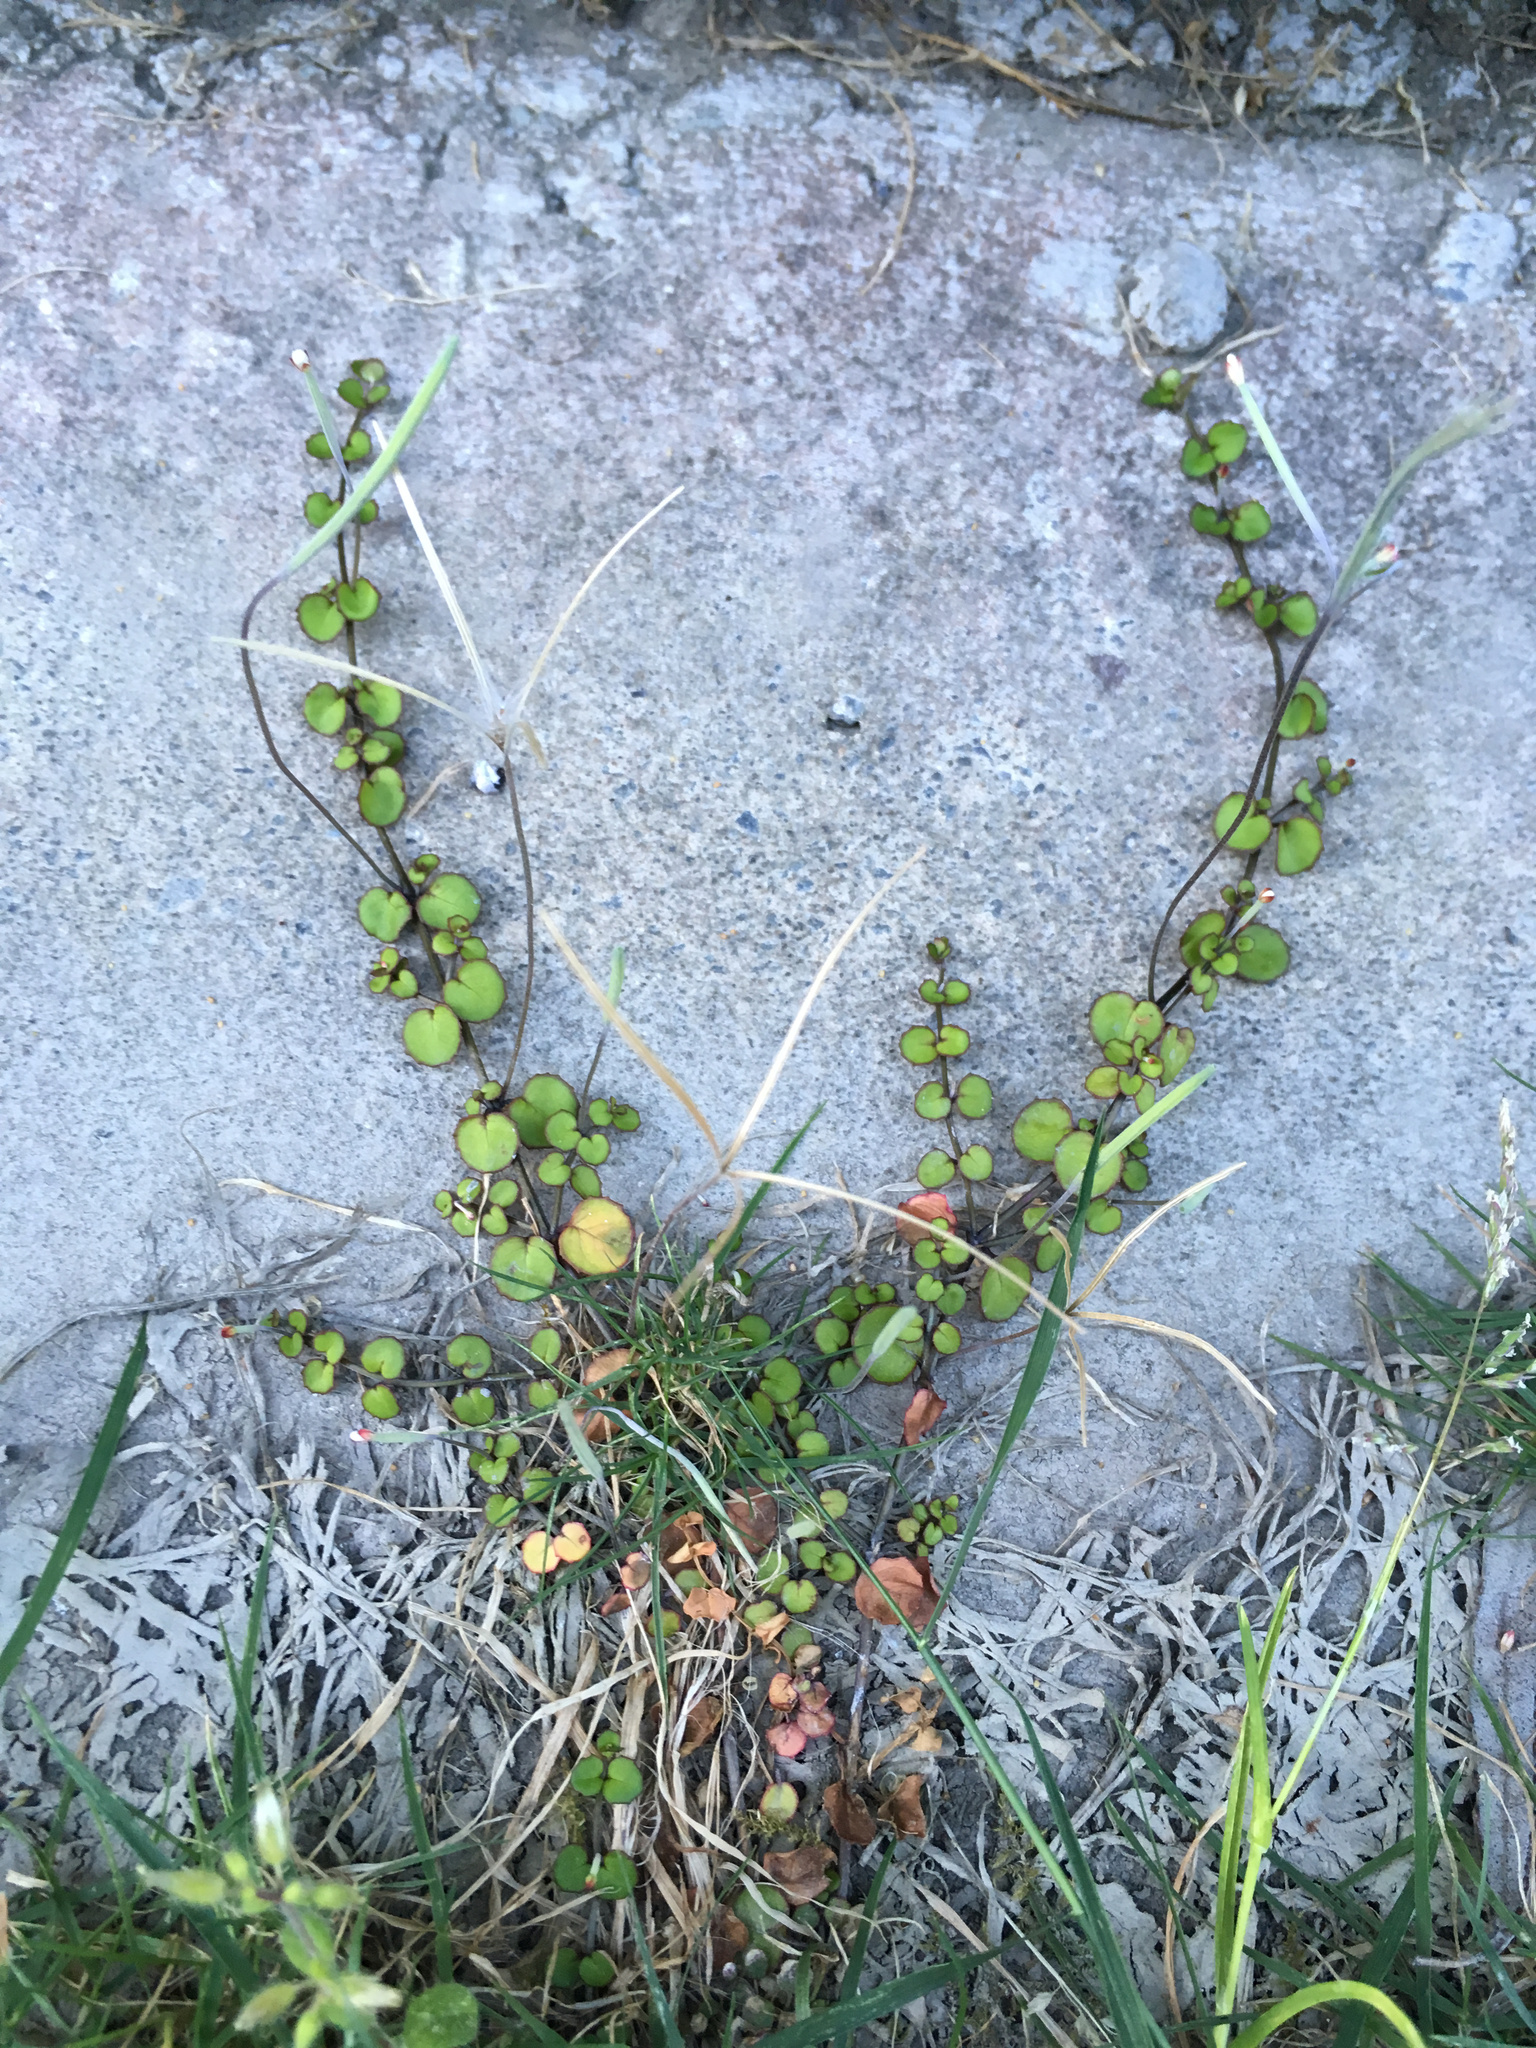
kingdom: Plantae
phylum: Tracheophyta
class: Magnoliopsida
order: Myrtales
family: Onagraceae
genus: Epilobium
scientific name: Epilobium nummularifolium
